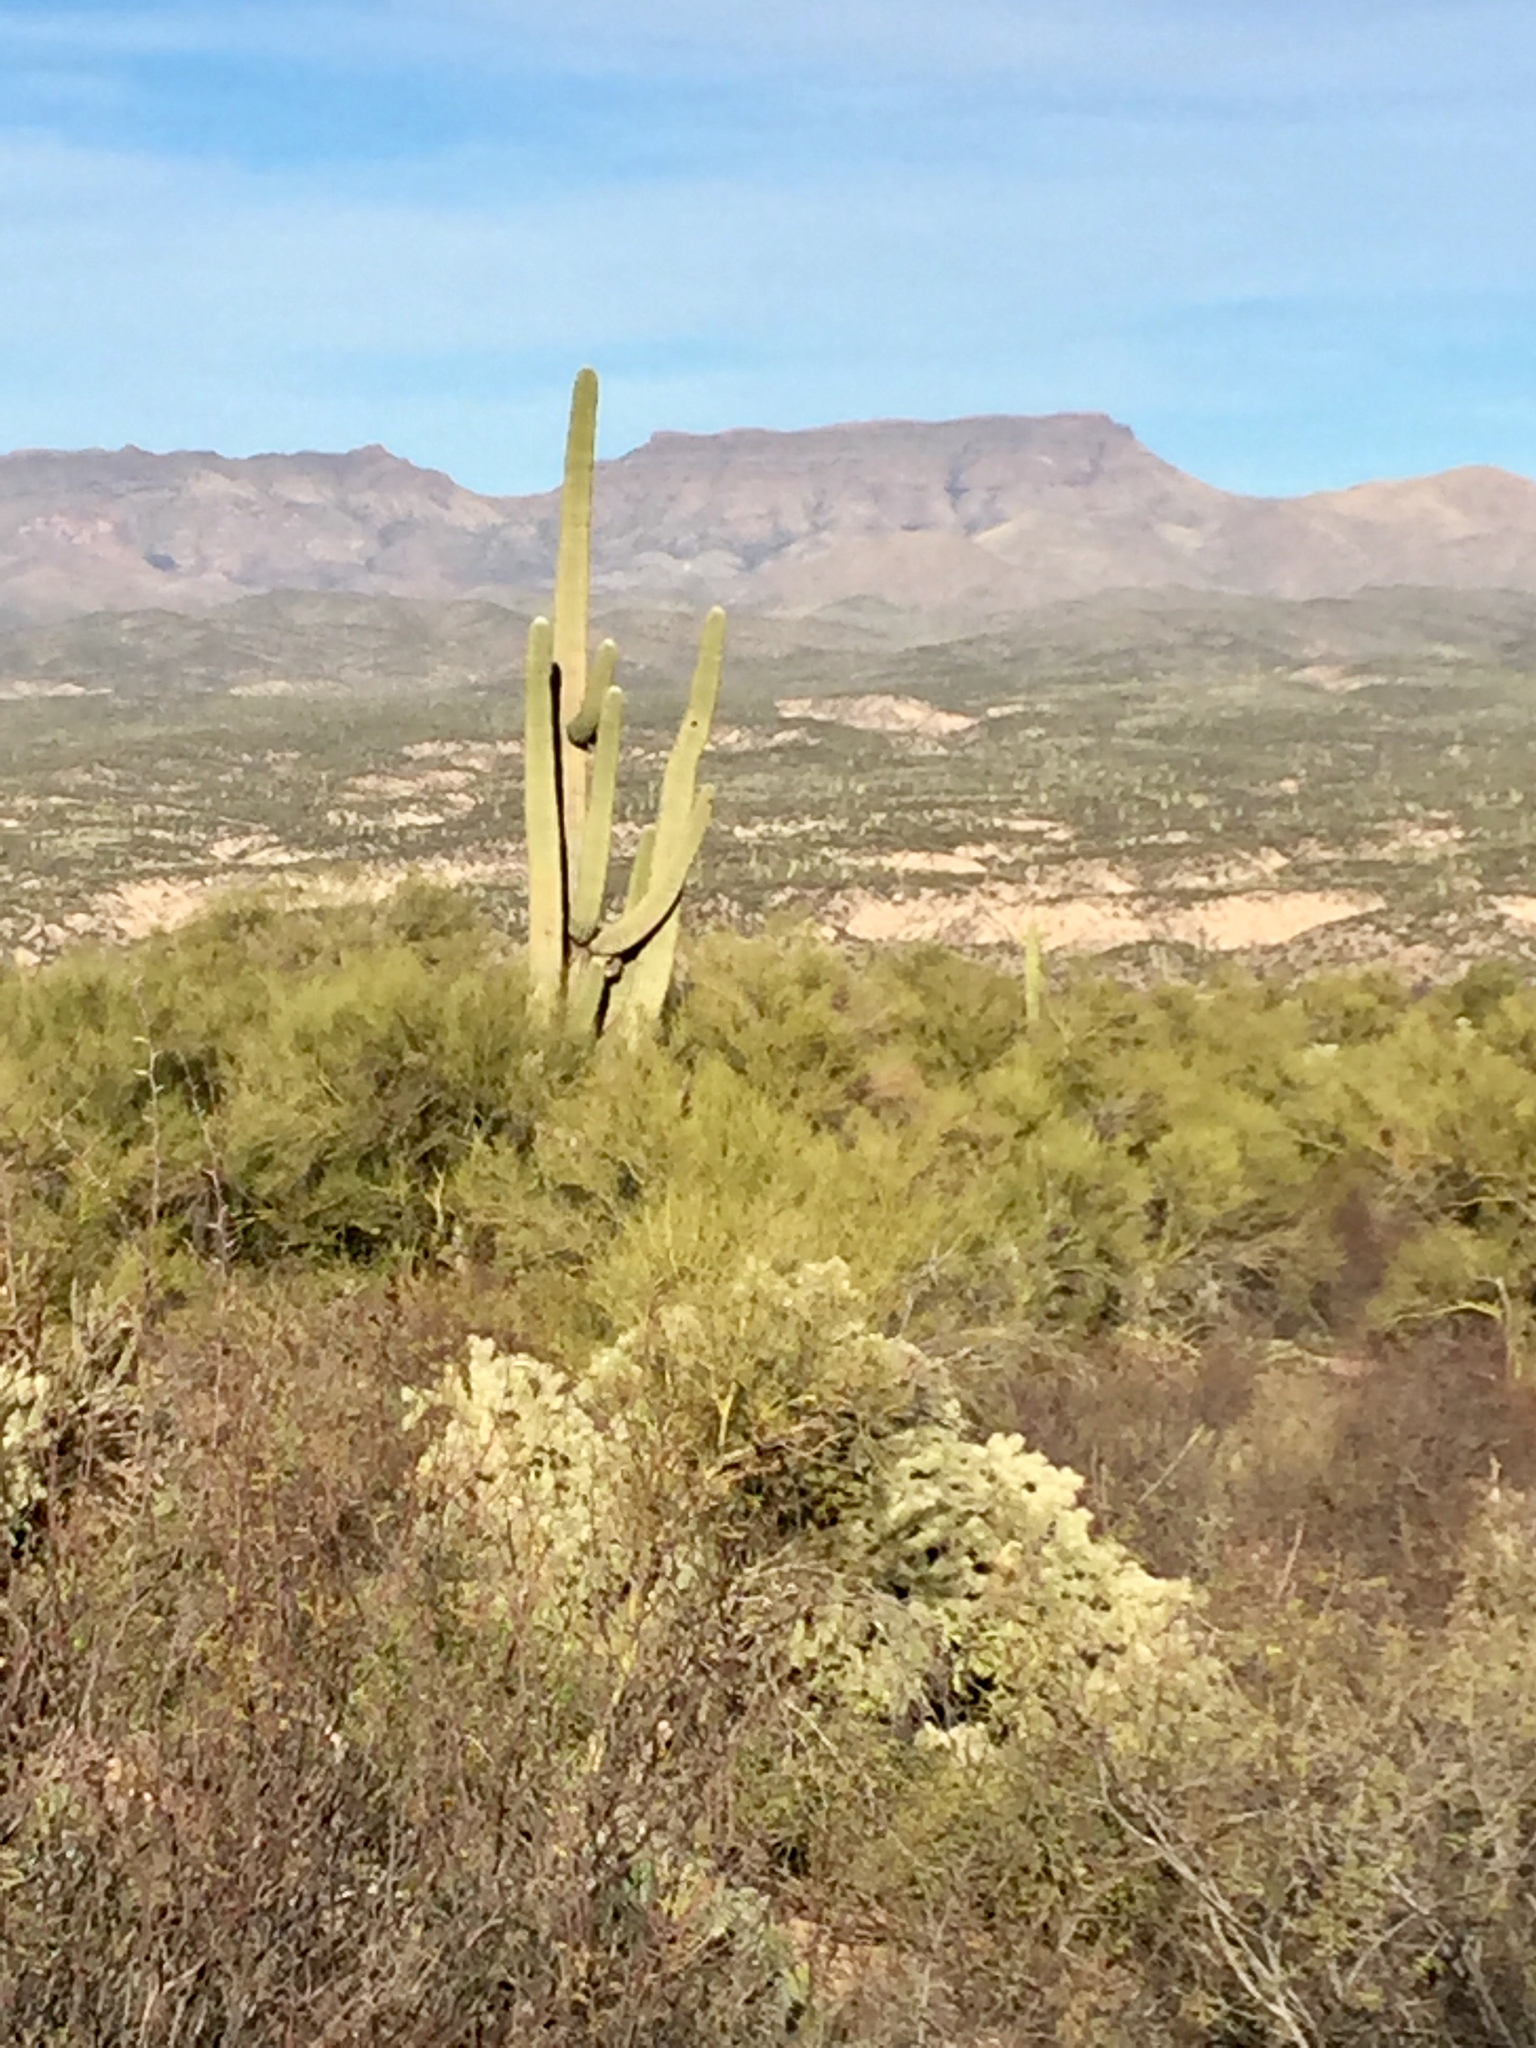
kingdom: Plantae
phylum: Tracheophyta
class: Magnoliopsida
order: Caryophyllales
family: Cactaceae
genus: Carnegiea
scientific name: Carnegiea gigantea
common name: Saguaro
